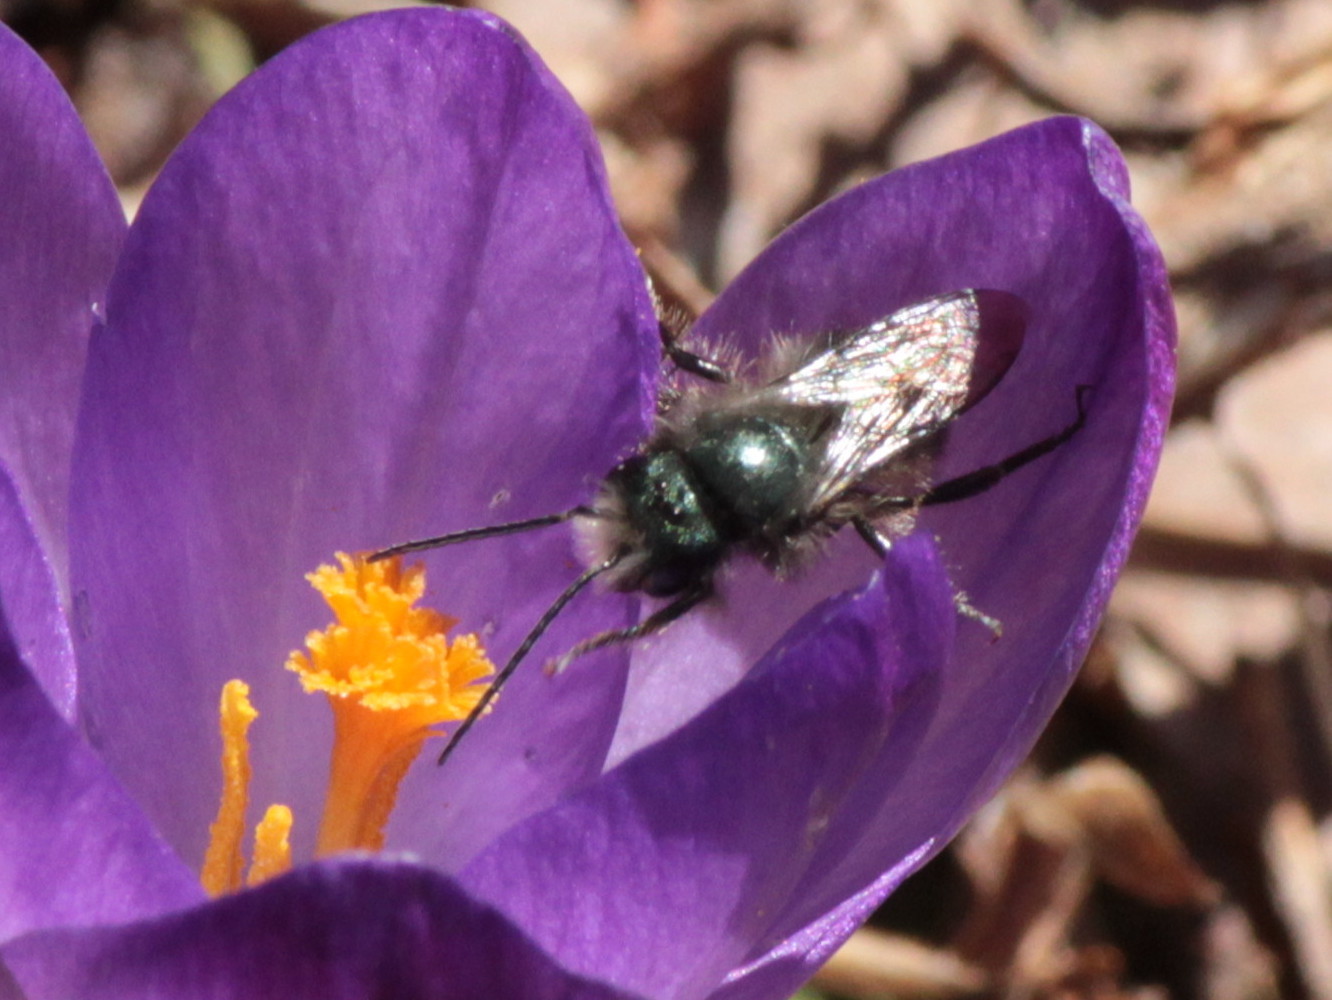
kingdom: Animalia
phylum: Arthropoda
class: Insecta
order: Hymenoptera
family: Megachilidae
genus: Osmia
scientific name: Osmia lignaria
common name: Blue orchard bee
